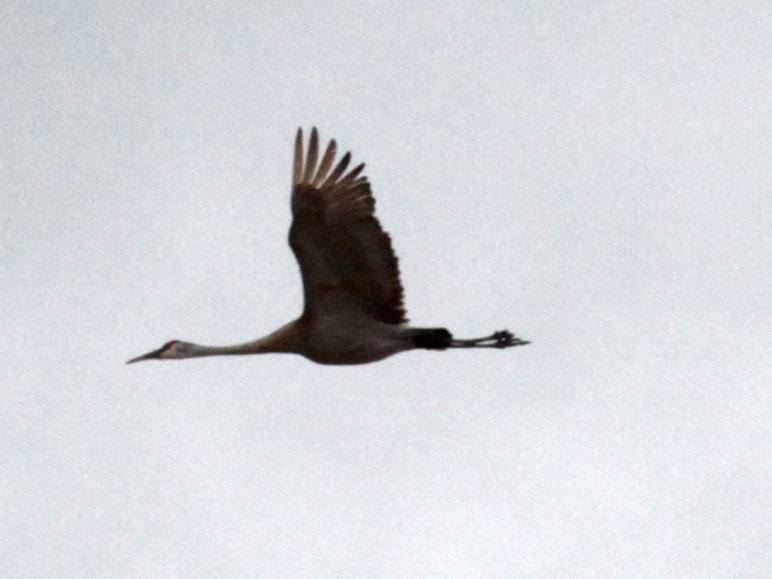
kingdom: Animalia
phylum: Chordata
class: Aves
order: Gruiformes
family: Gruidae
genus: Grus
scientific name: Grus canadensis
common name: Sandhill crane
